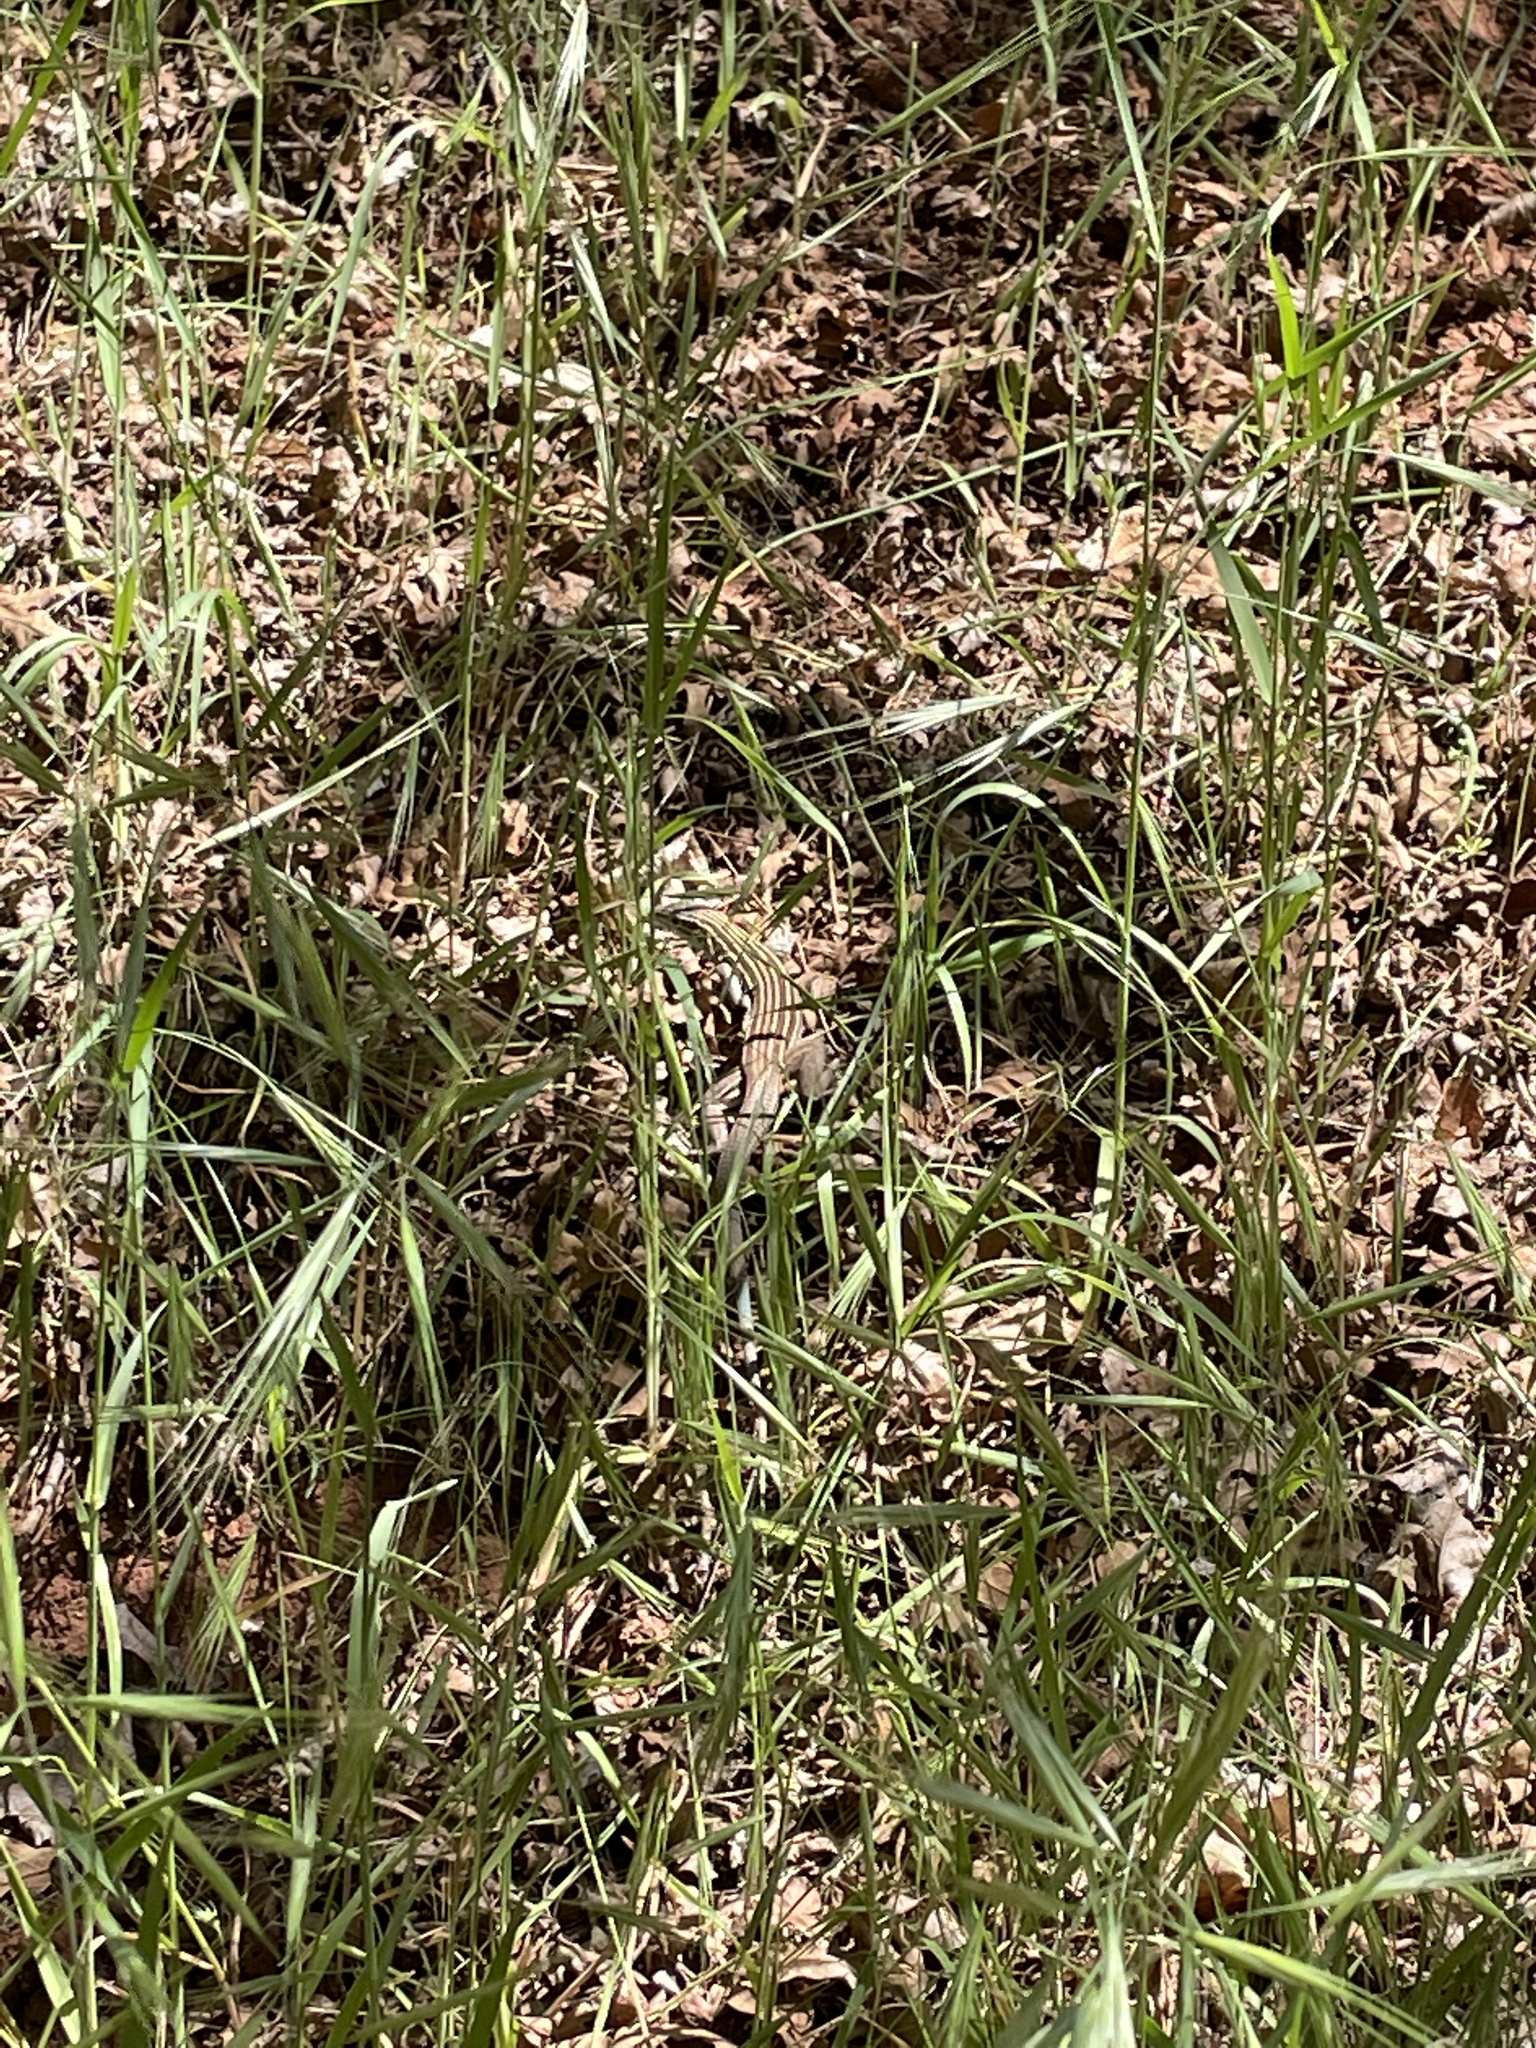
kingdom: Animalia
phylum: Chordata
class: Squamata
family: Teiidae
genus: Aspidoscelis
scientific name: Aspidoscelis velox
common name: Plateau striped whiptail
